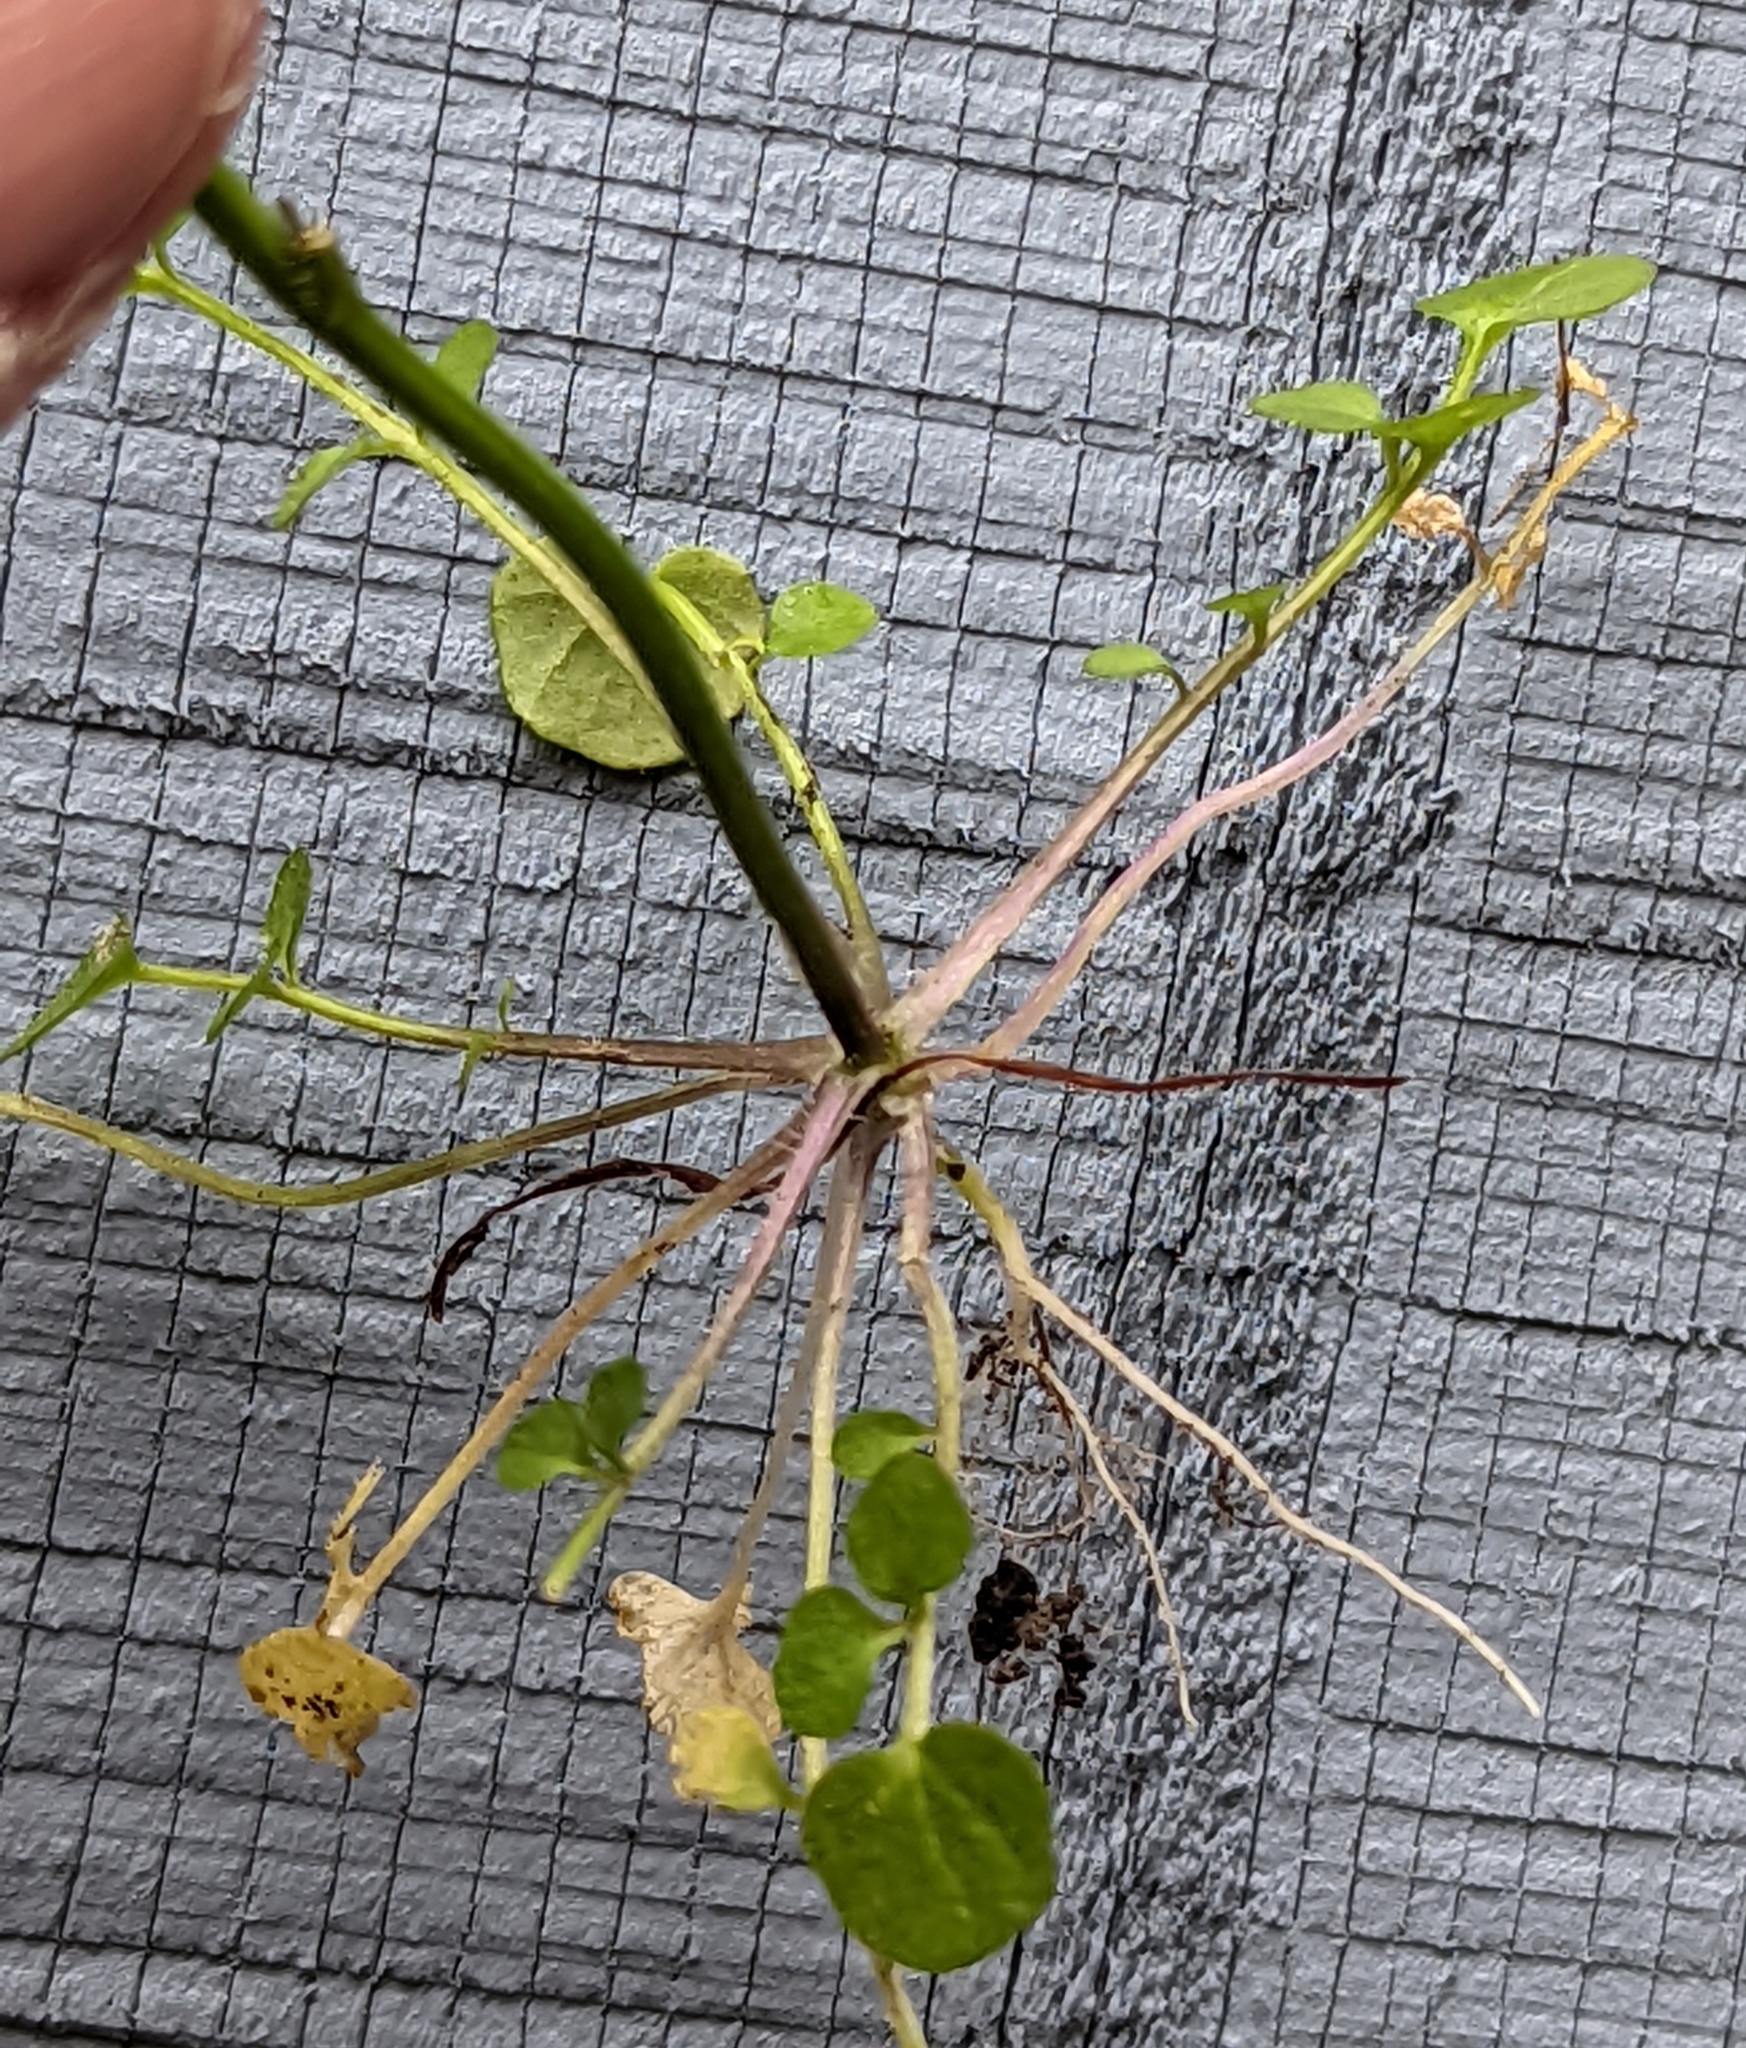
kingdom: Plantae
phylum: Tracheophyta
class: Magnoliopsida
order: Brassicales
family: Brassicaceae
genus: Cardamine
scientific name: Cardamine hirsuta
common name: Hairy bittercress
